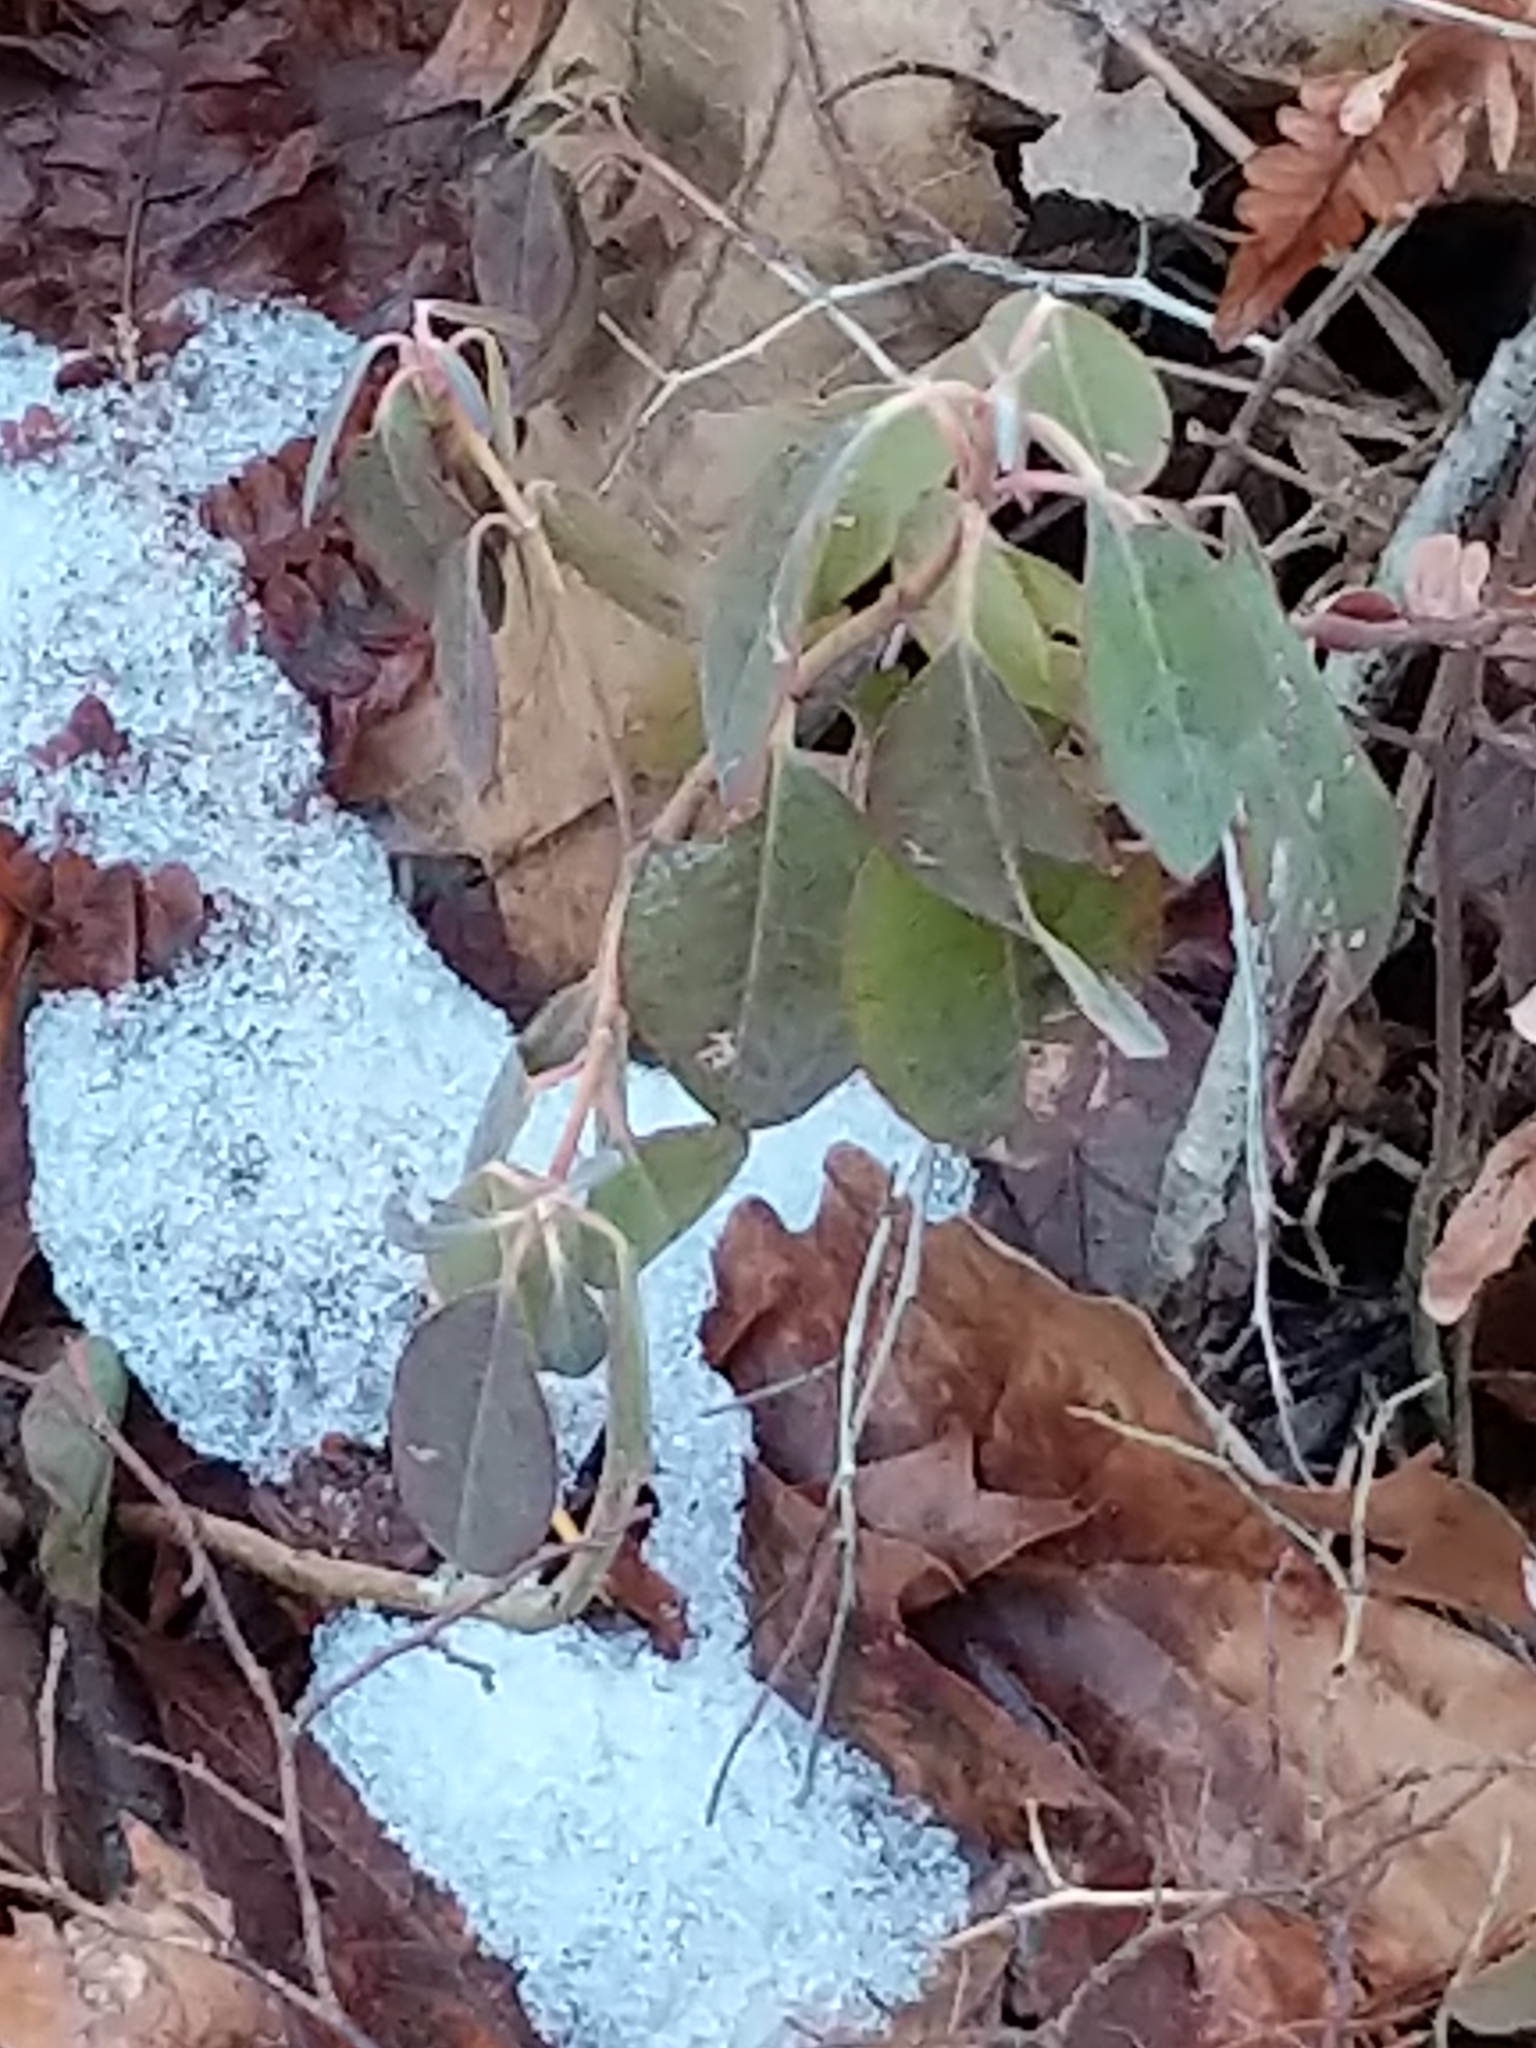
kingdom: Plantae
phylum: Tracheophyta
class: Magnoliopsida
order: Ericales
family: Ericaceae
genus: Kalmia
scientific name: Kalmia angustifolia
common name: Sheep-laurel
